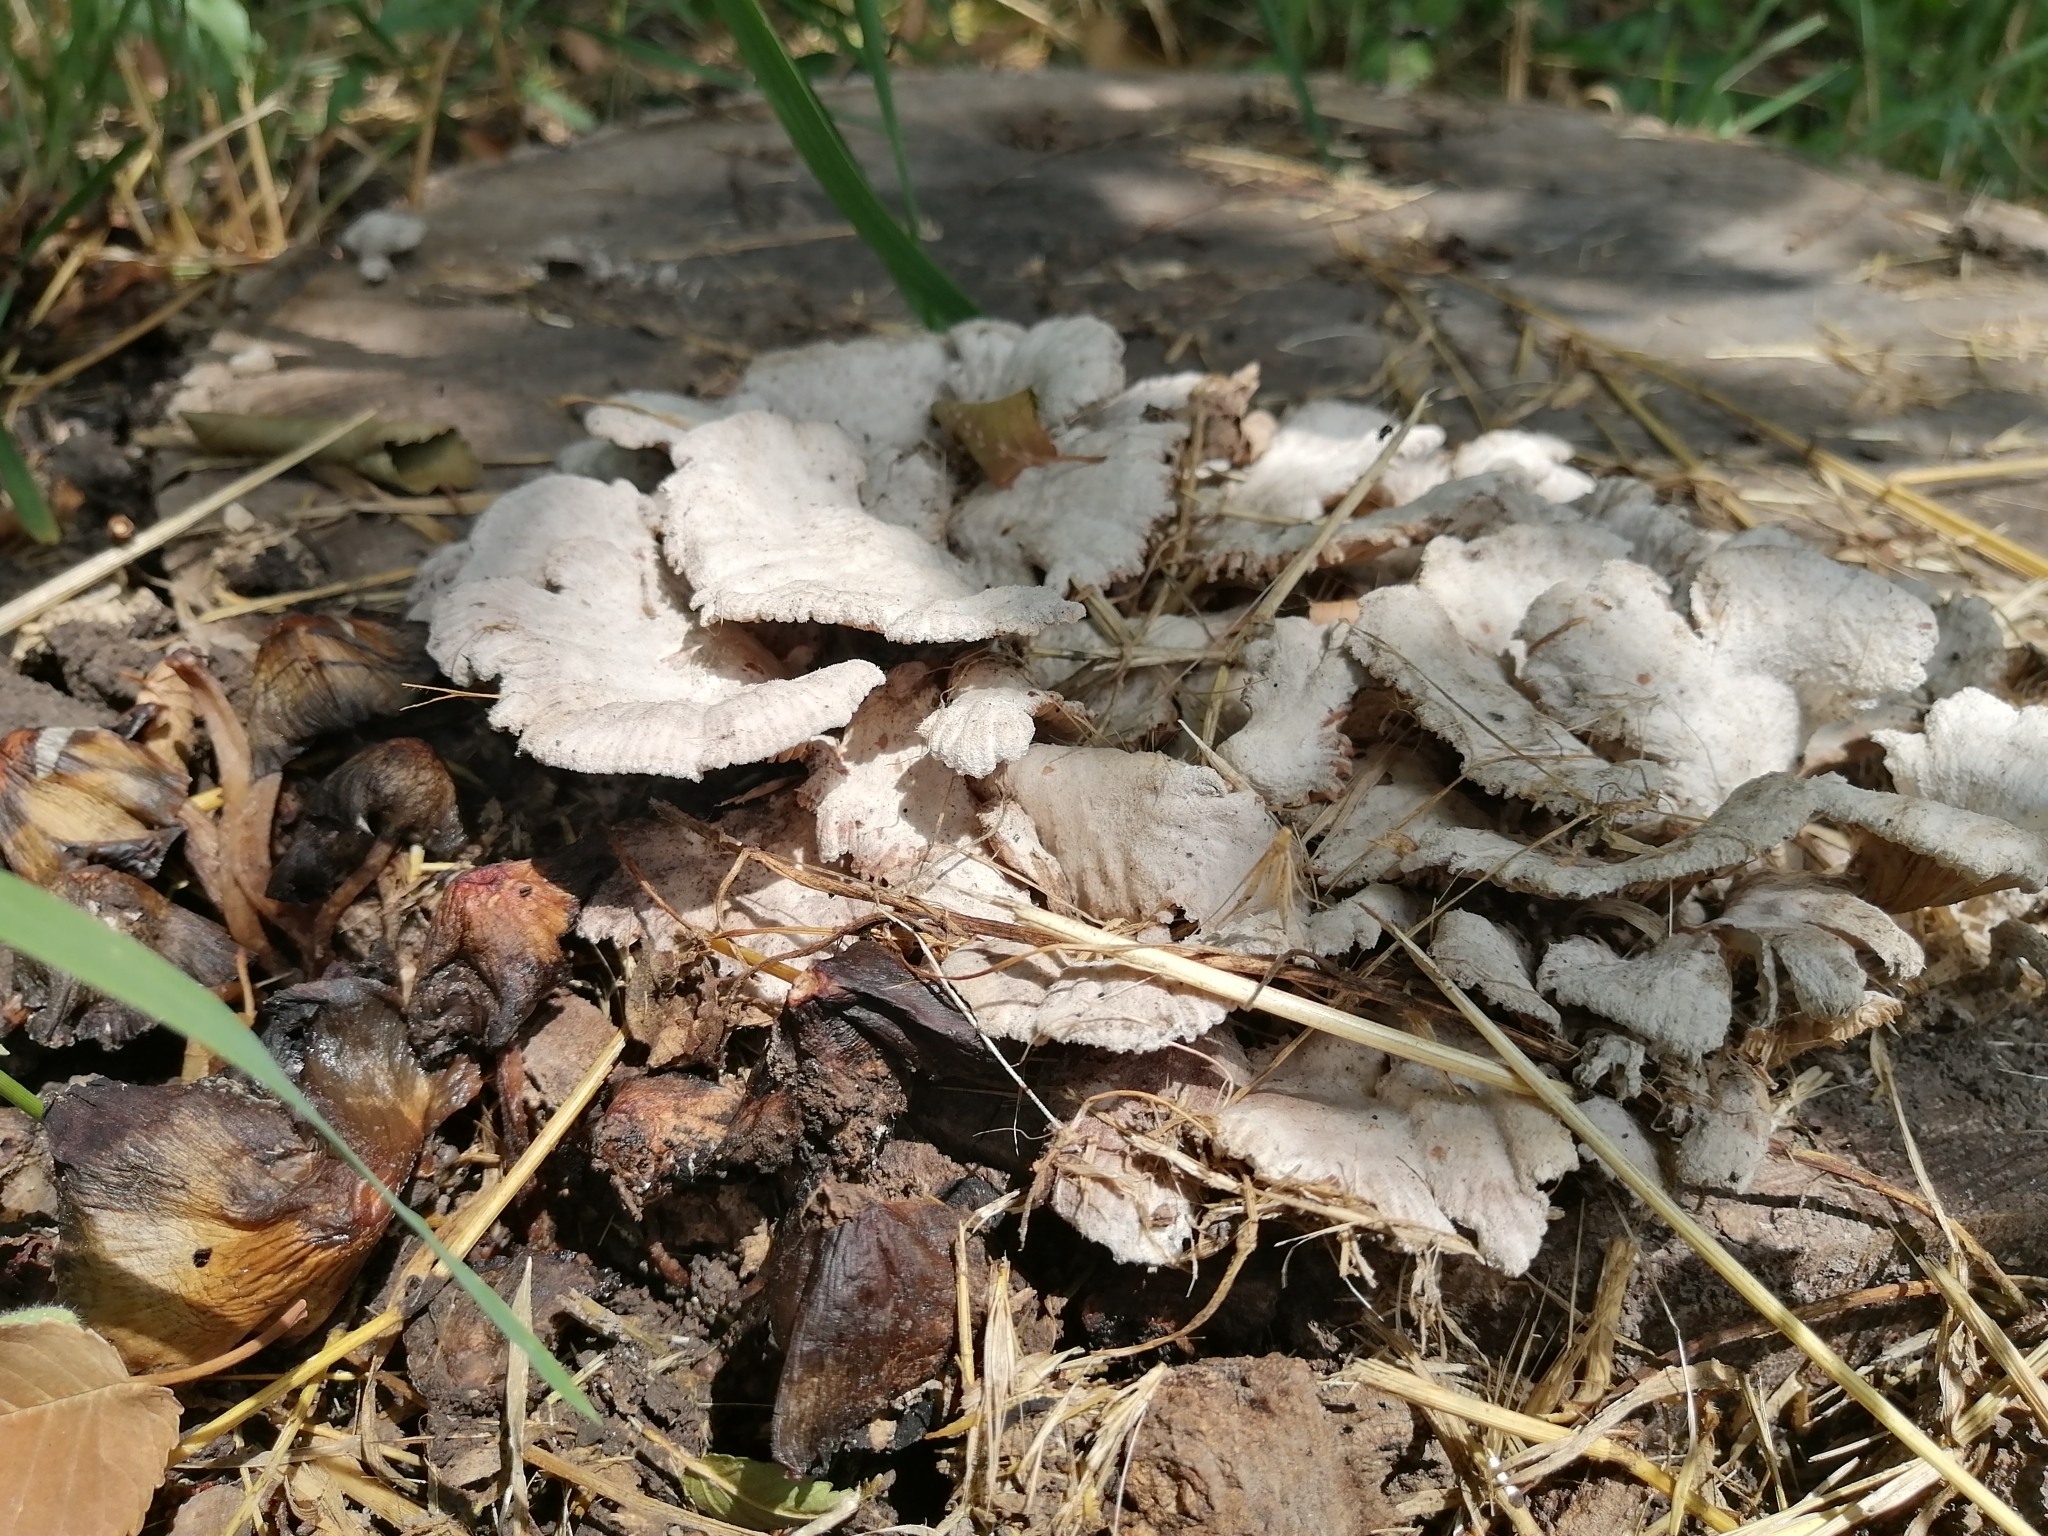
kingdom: Fungi
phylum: Basidiomycota
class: Agaricomycetes
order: Agaricales
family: Schizophyllaceae
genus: Schizophyllum
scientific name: Schizophyllum commune
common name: Common porecrust
